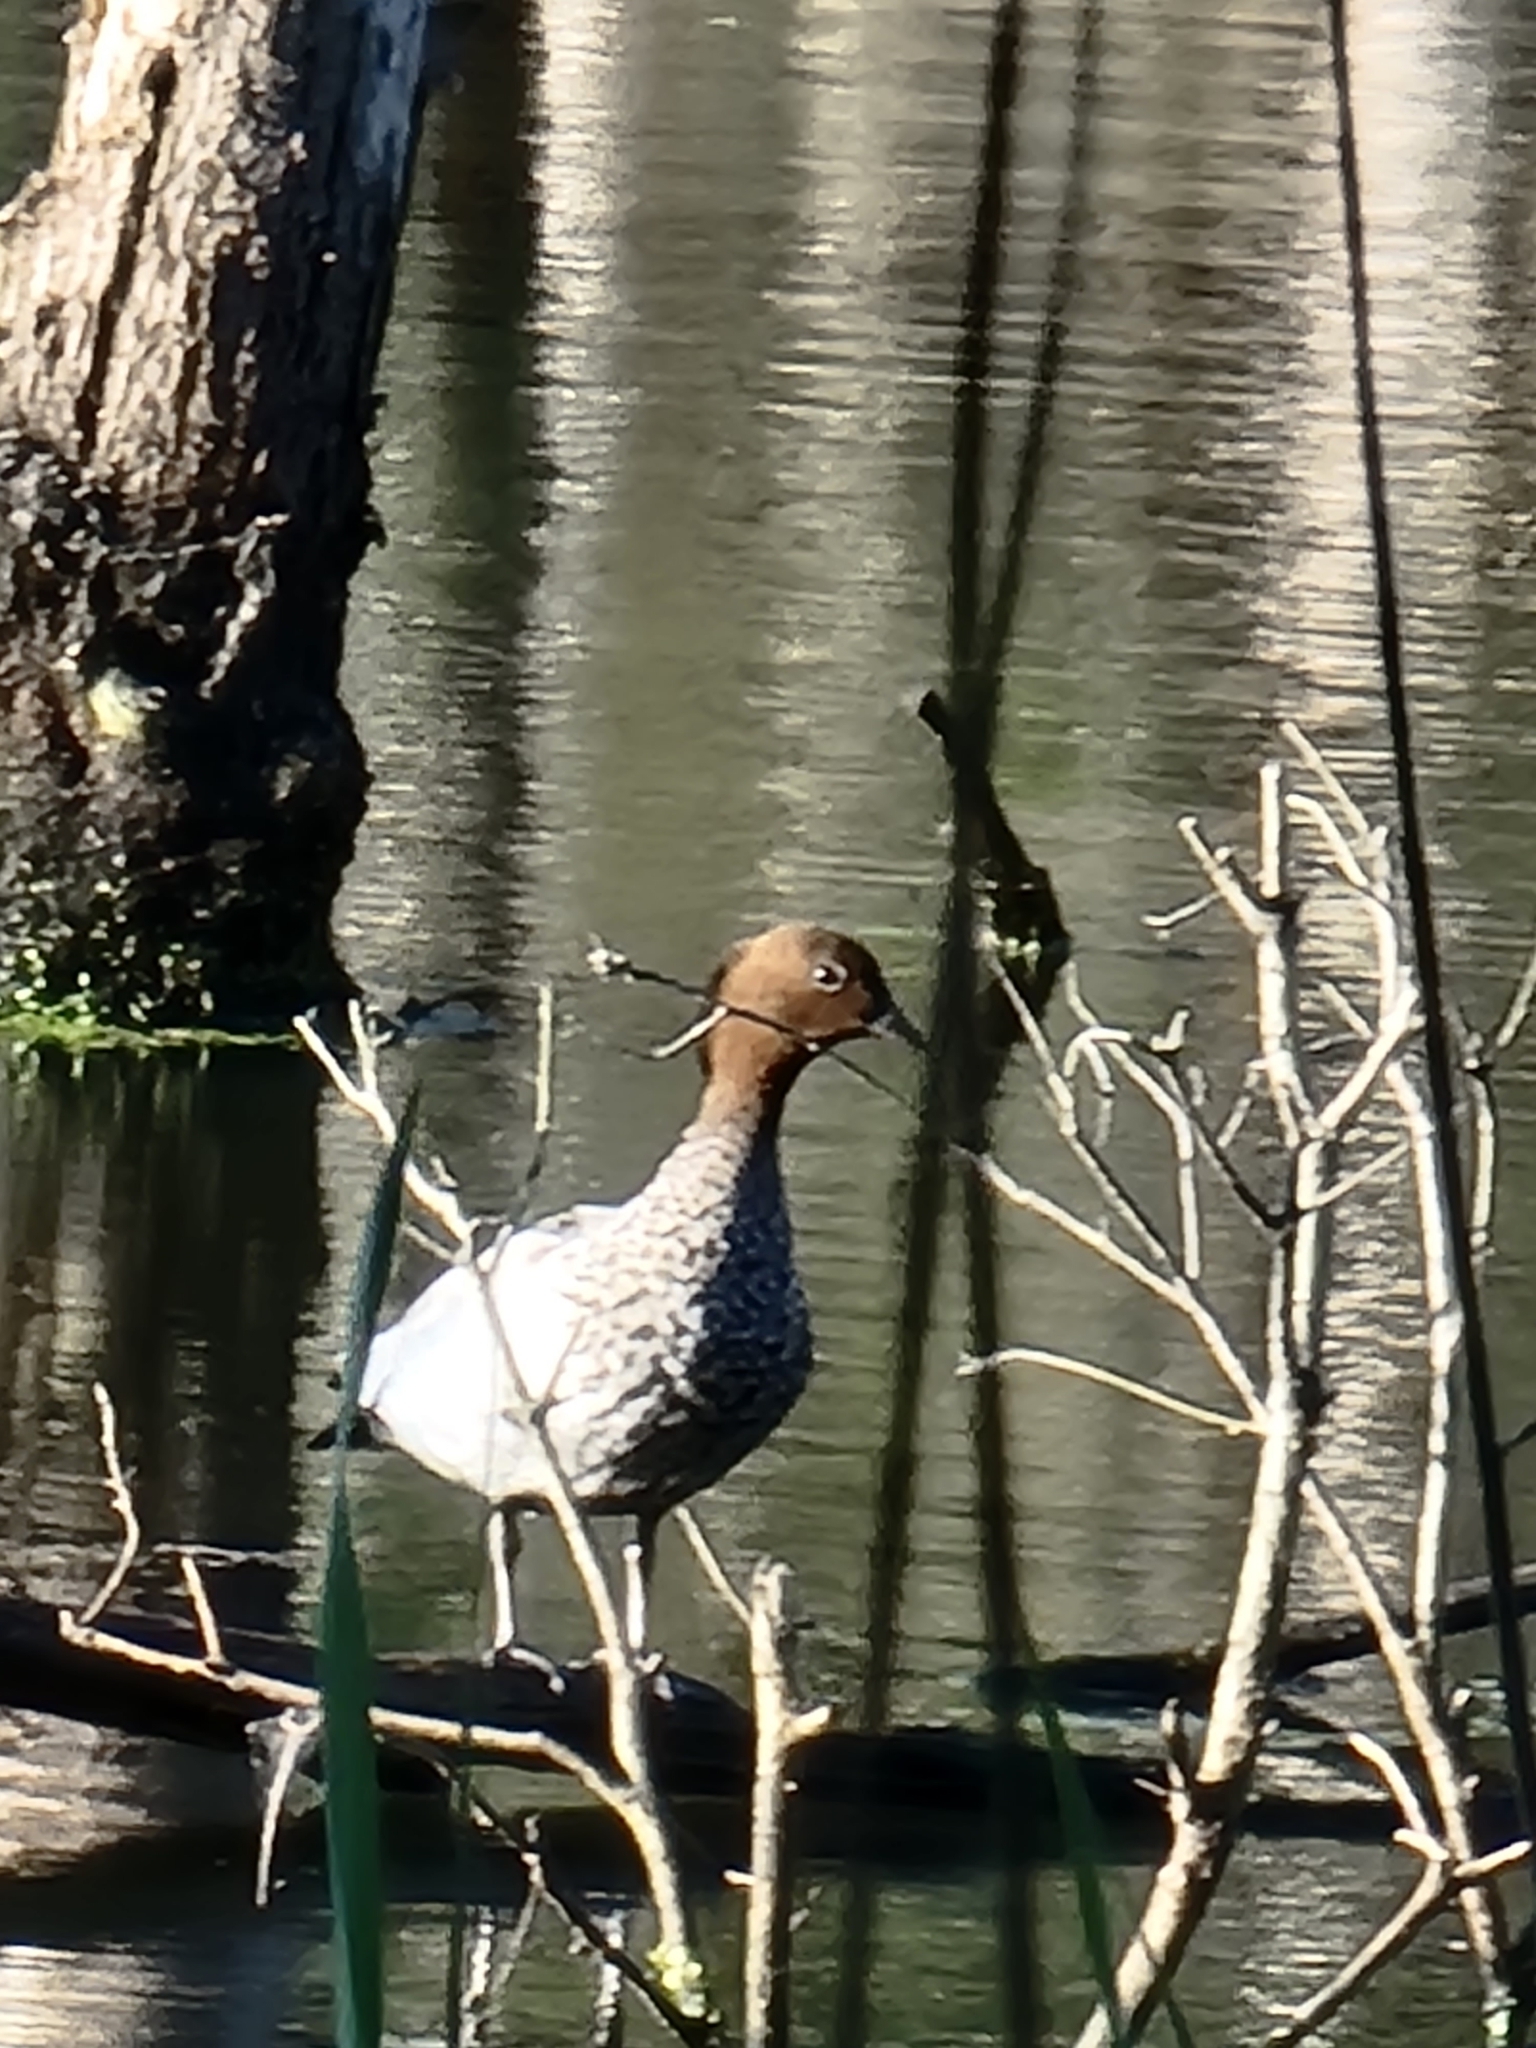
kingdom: Animalia
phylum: Chordata
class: Aves
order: Anseriformes
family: Anatidae
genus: Chenonetta
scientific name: Chenonetta jubata
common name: Maned duck
